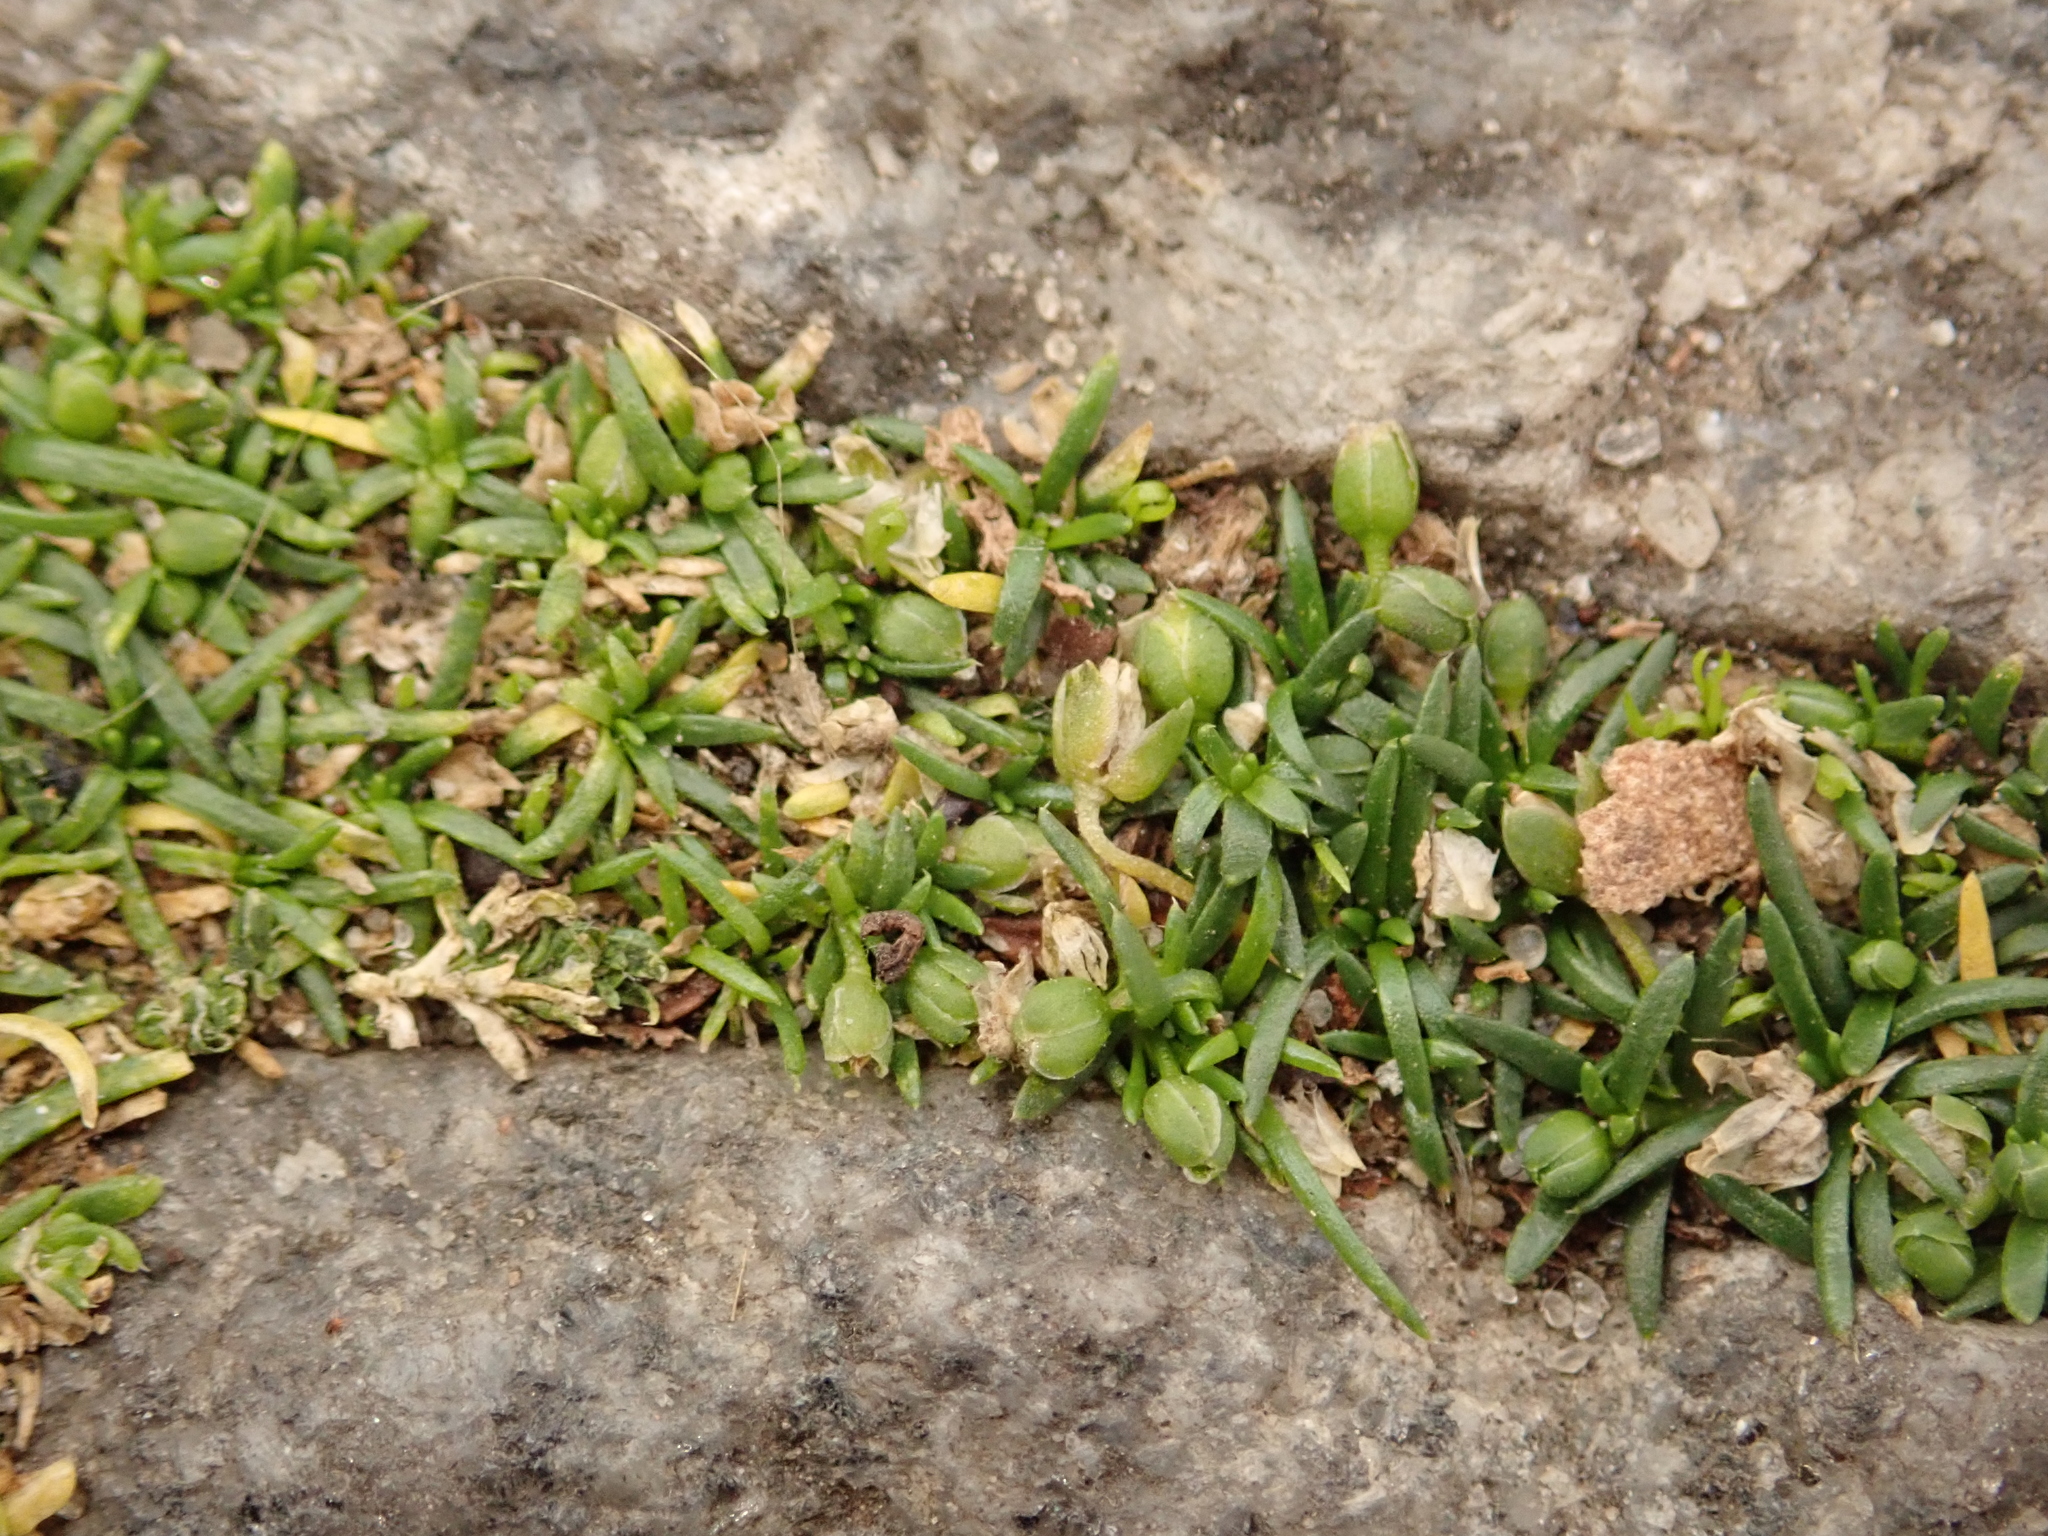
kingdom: Plantae
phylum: Tracheophyta
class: Magnoliopsida
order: Caryophyllales
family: Caryophyllaceae
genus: Sagina
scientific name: Sagina procumbens
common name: Procumbent pearlwort
